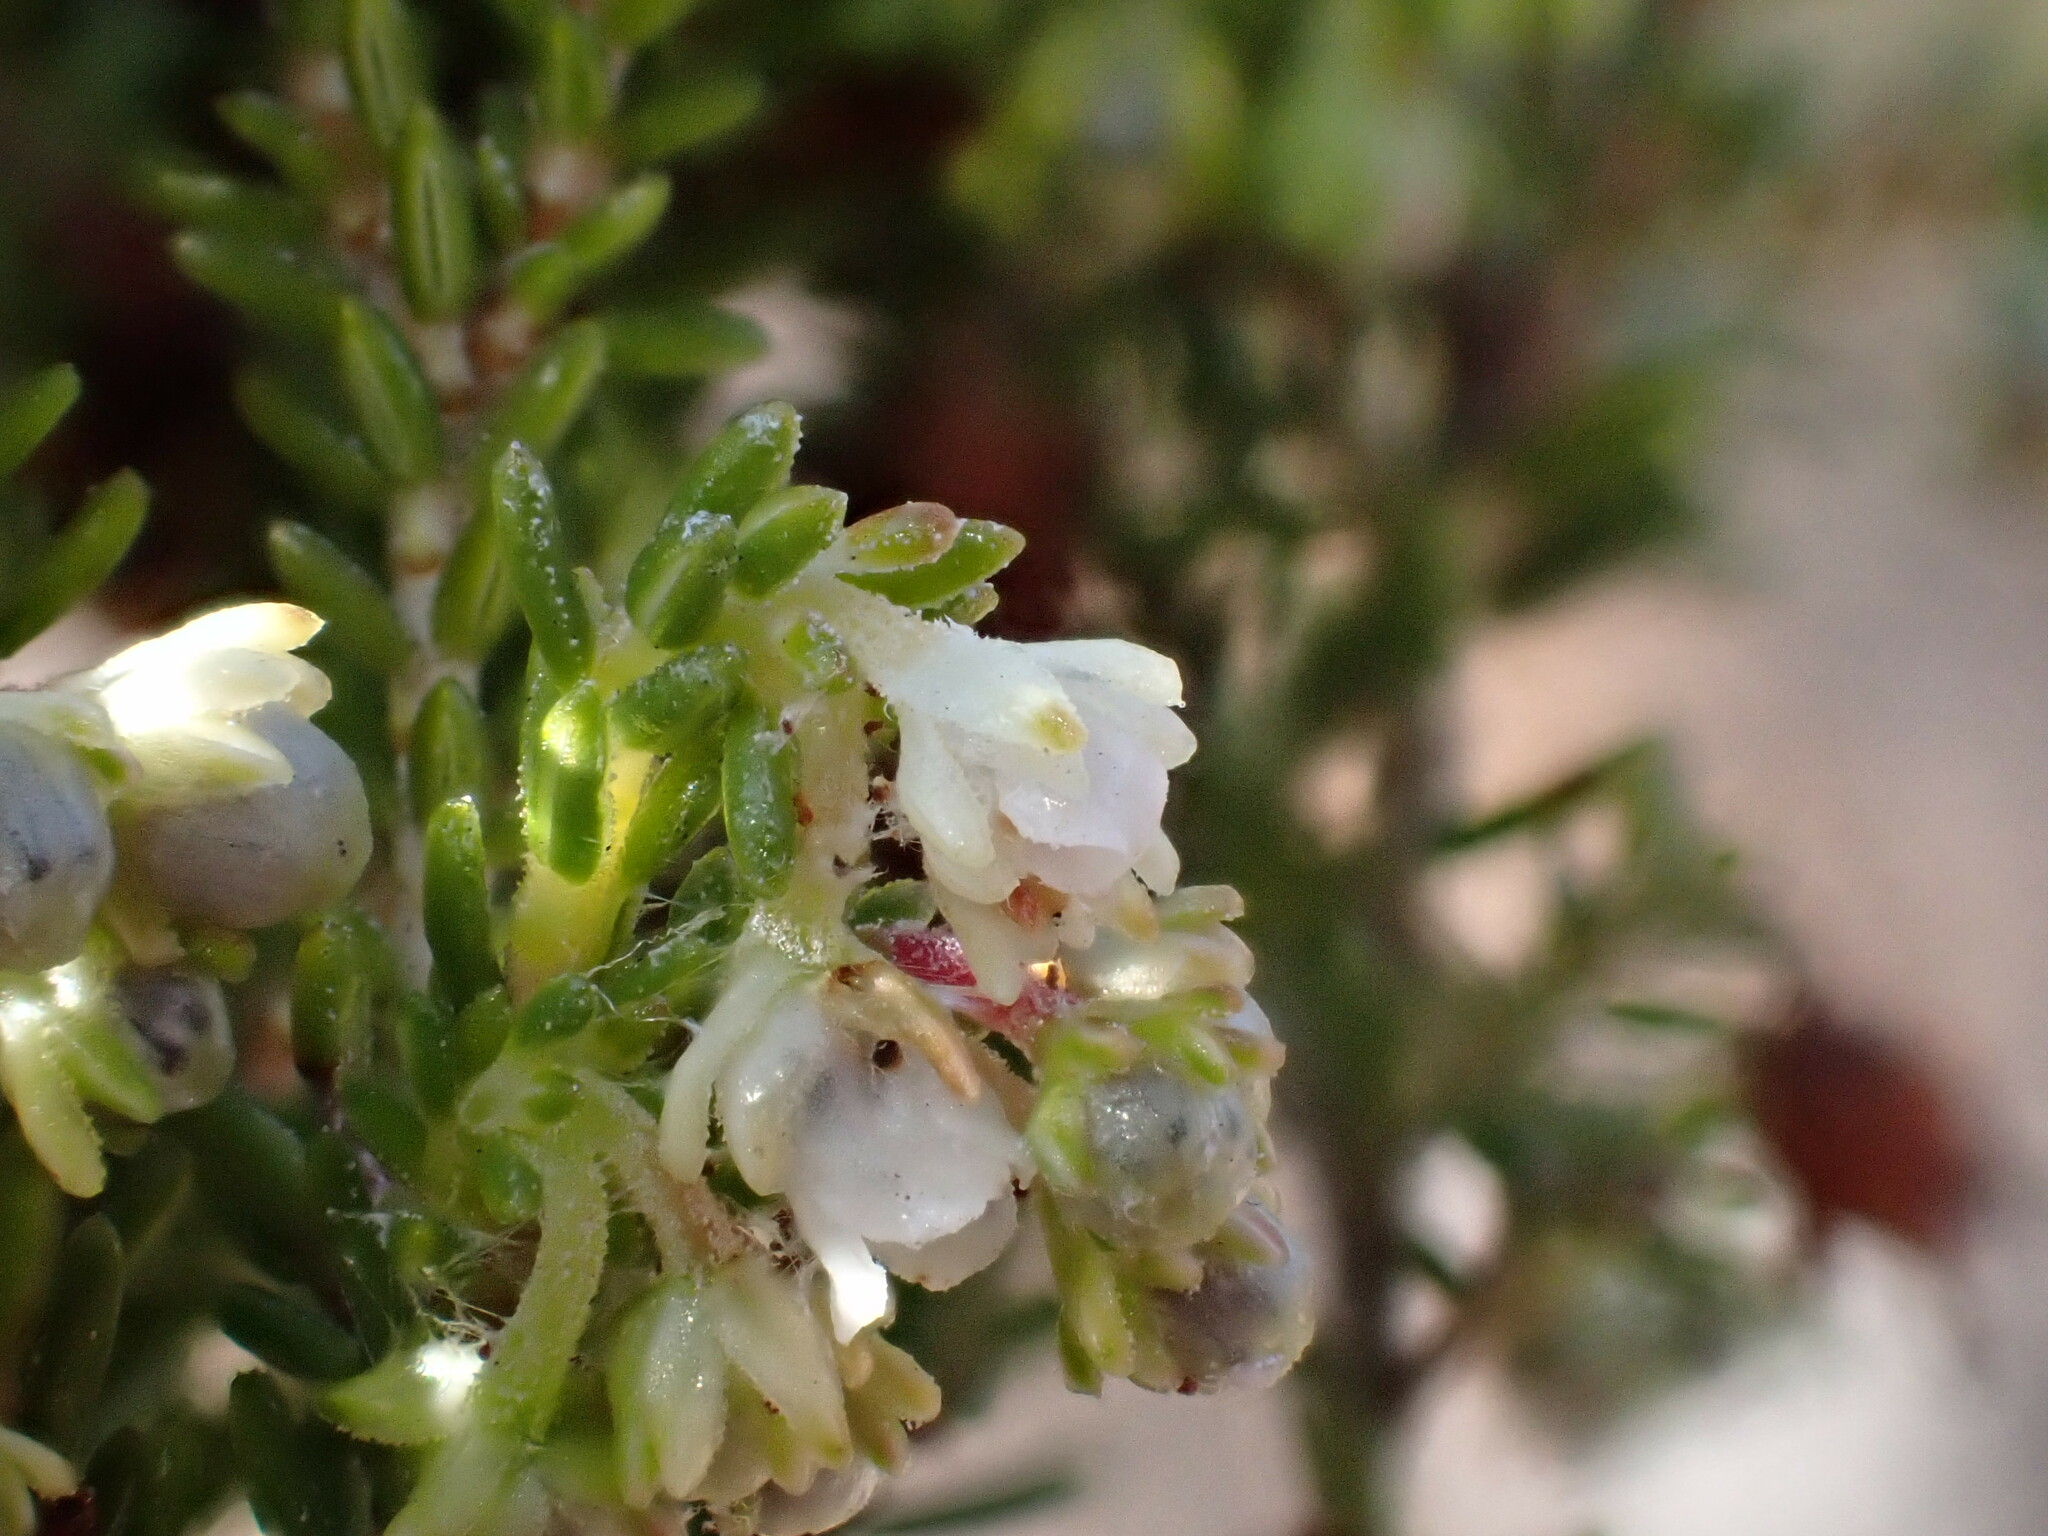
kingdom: Plantae
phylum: Tracheophyta
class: Magnoliopsida
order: Ericales
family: Ericaceae
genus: Erica
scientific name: Erica andreaei
